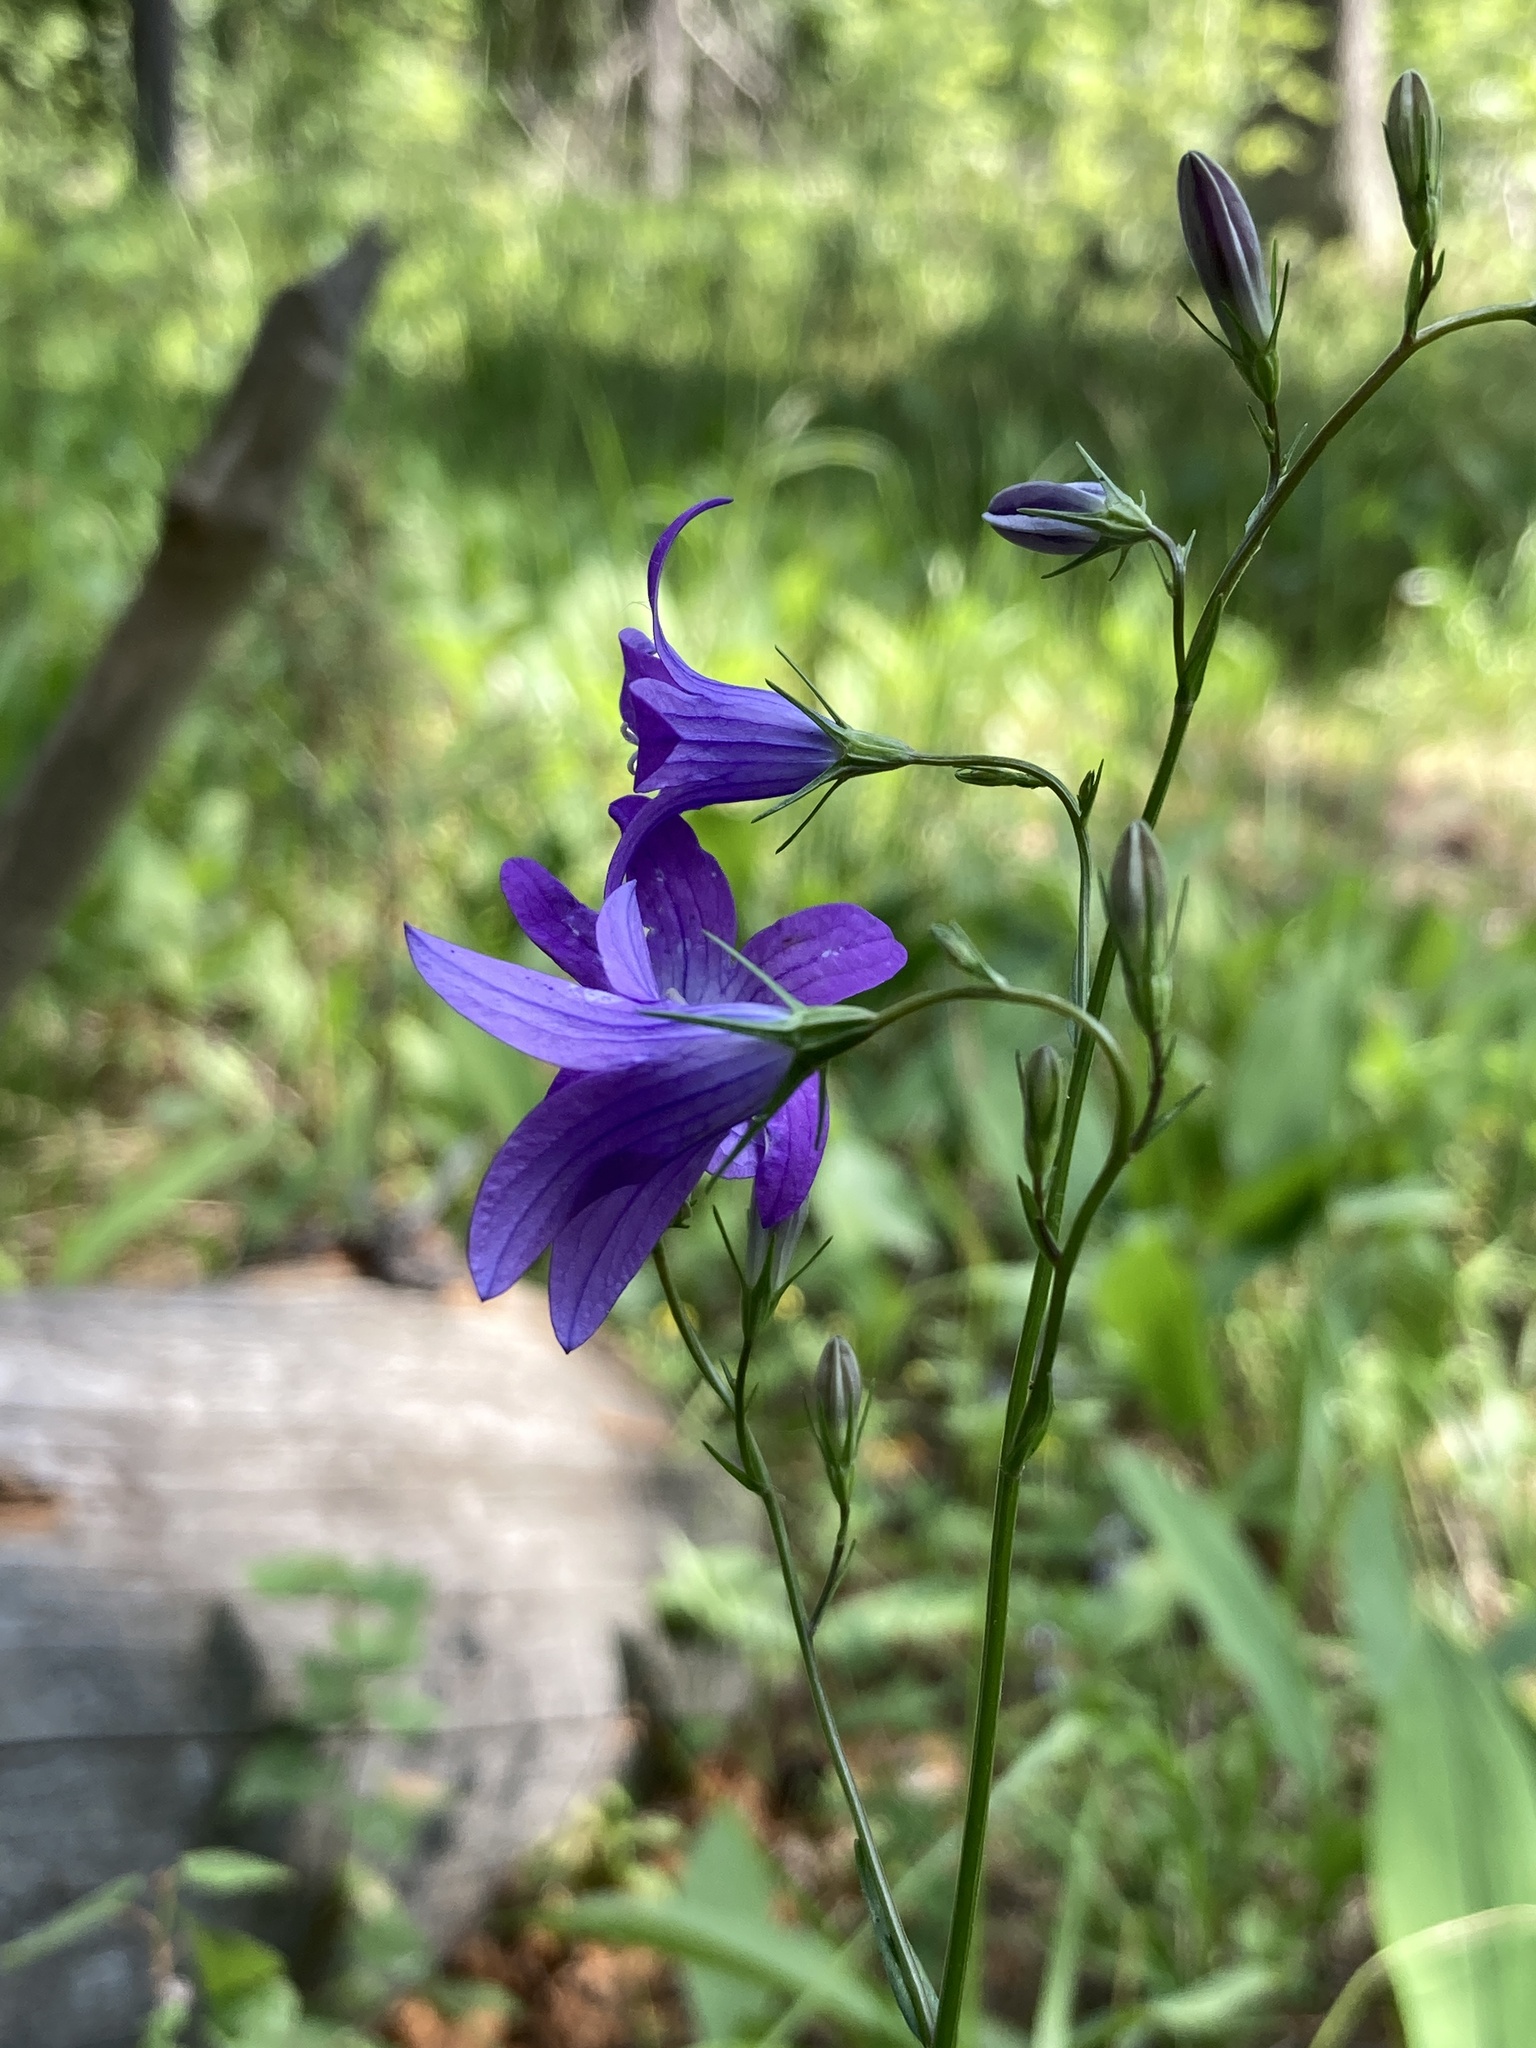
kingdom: Plantae
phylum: Tracheophyta
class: Magnoliopsida
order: Asterales
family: Campanulaceae
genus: Campanula
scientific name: Campanula patula
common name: Spreading bellflower
